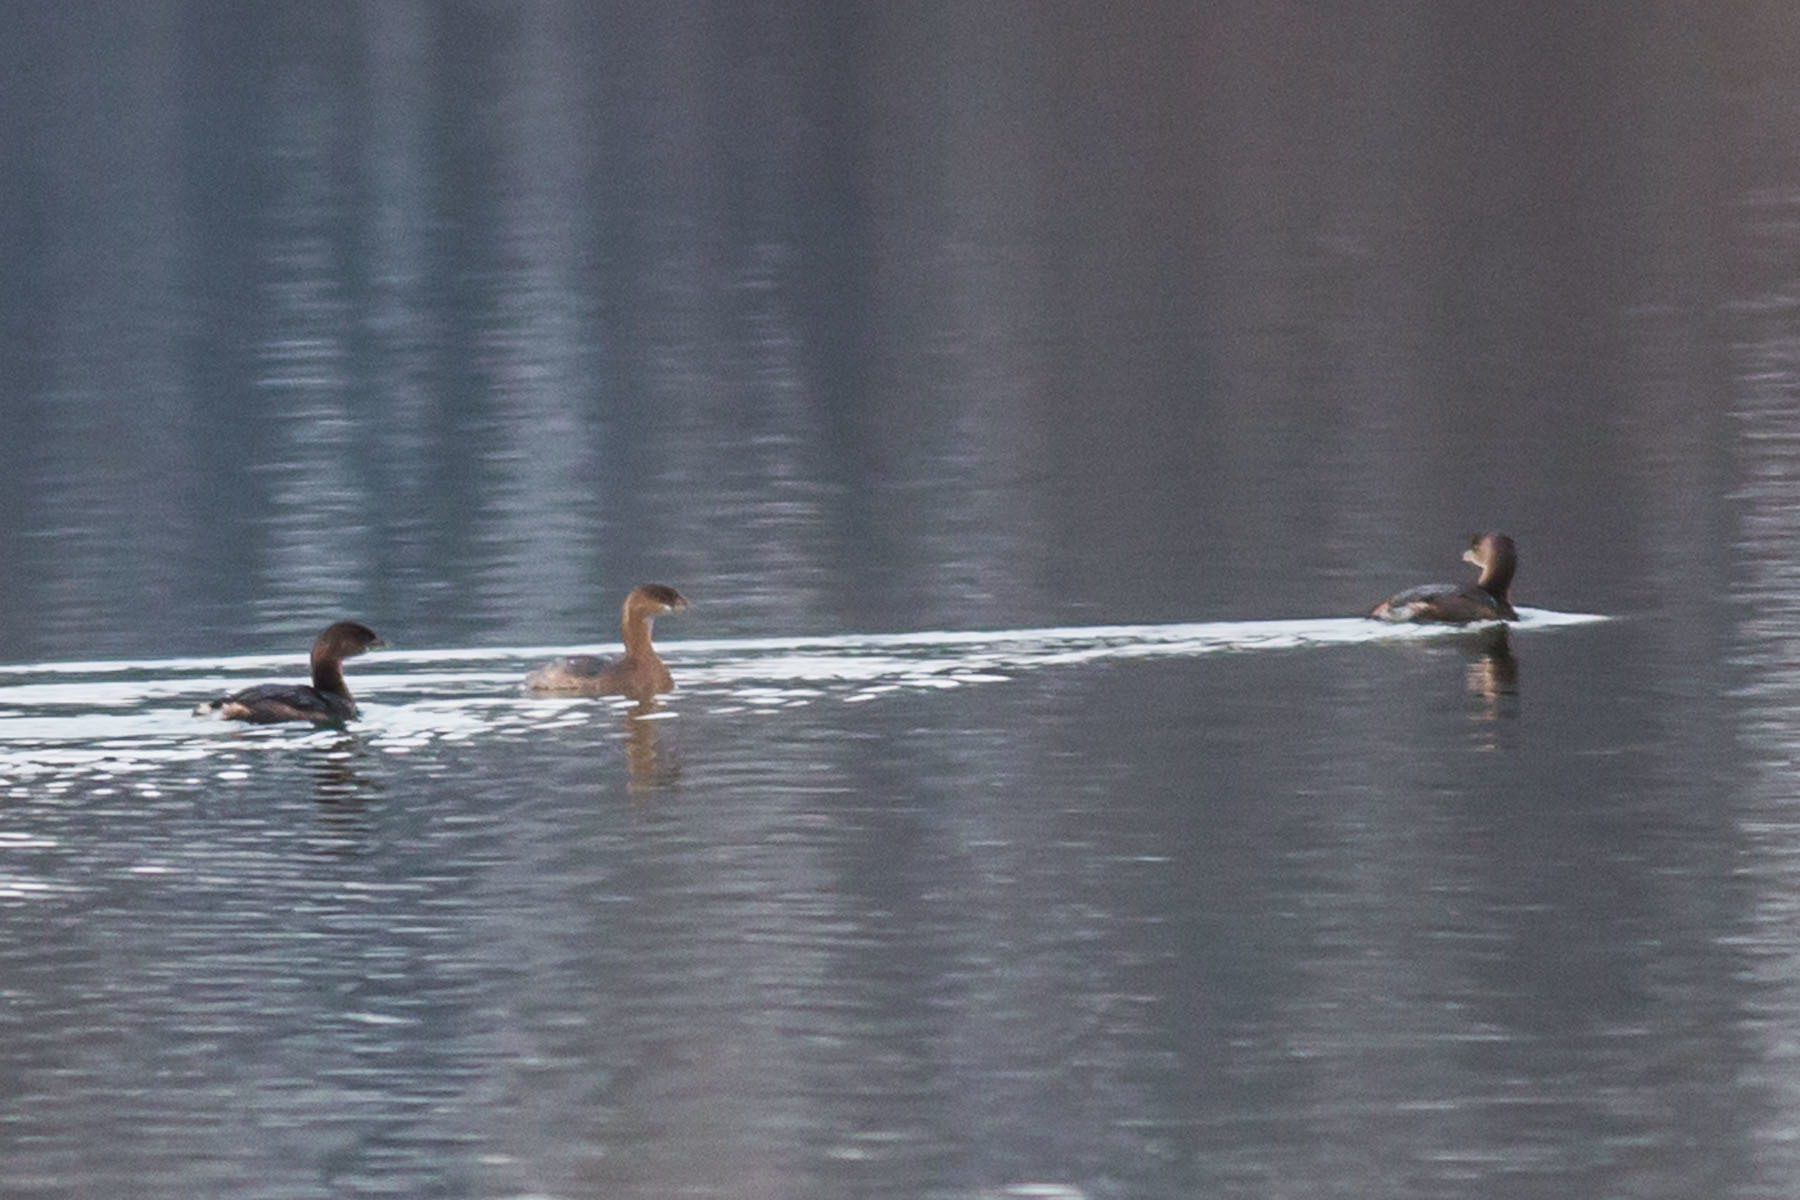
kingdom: Animalia
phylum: Chordata
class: Aves
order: Podicipediformes
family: Podicipedidae
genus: Podilymbus
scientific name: Podilymbus podiceps
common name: Pied-billed grebe
